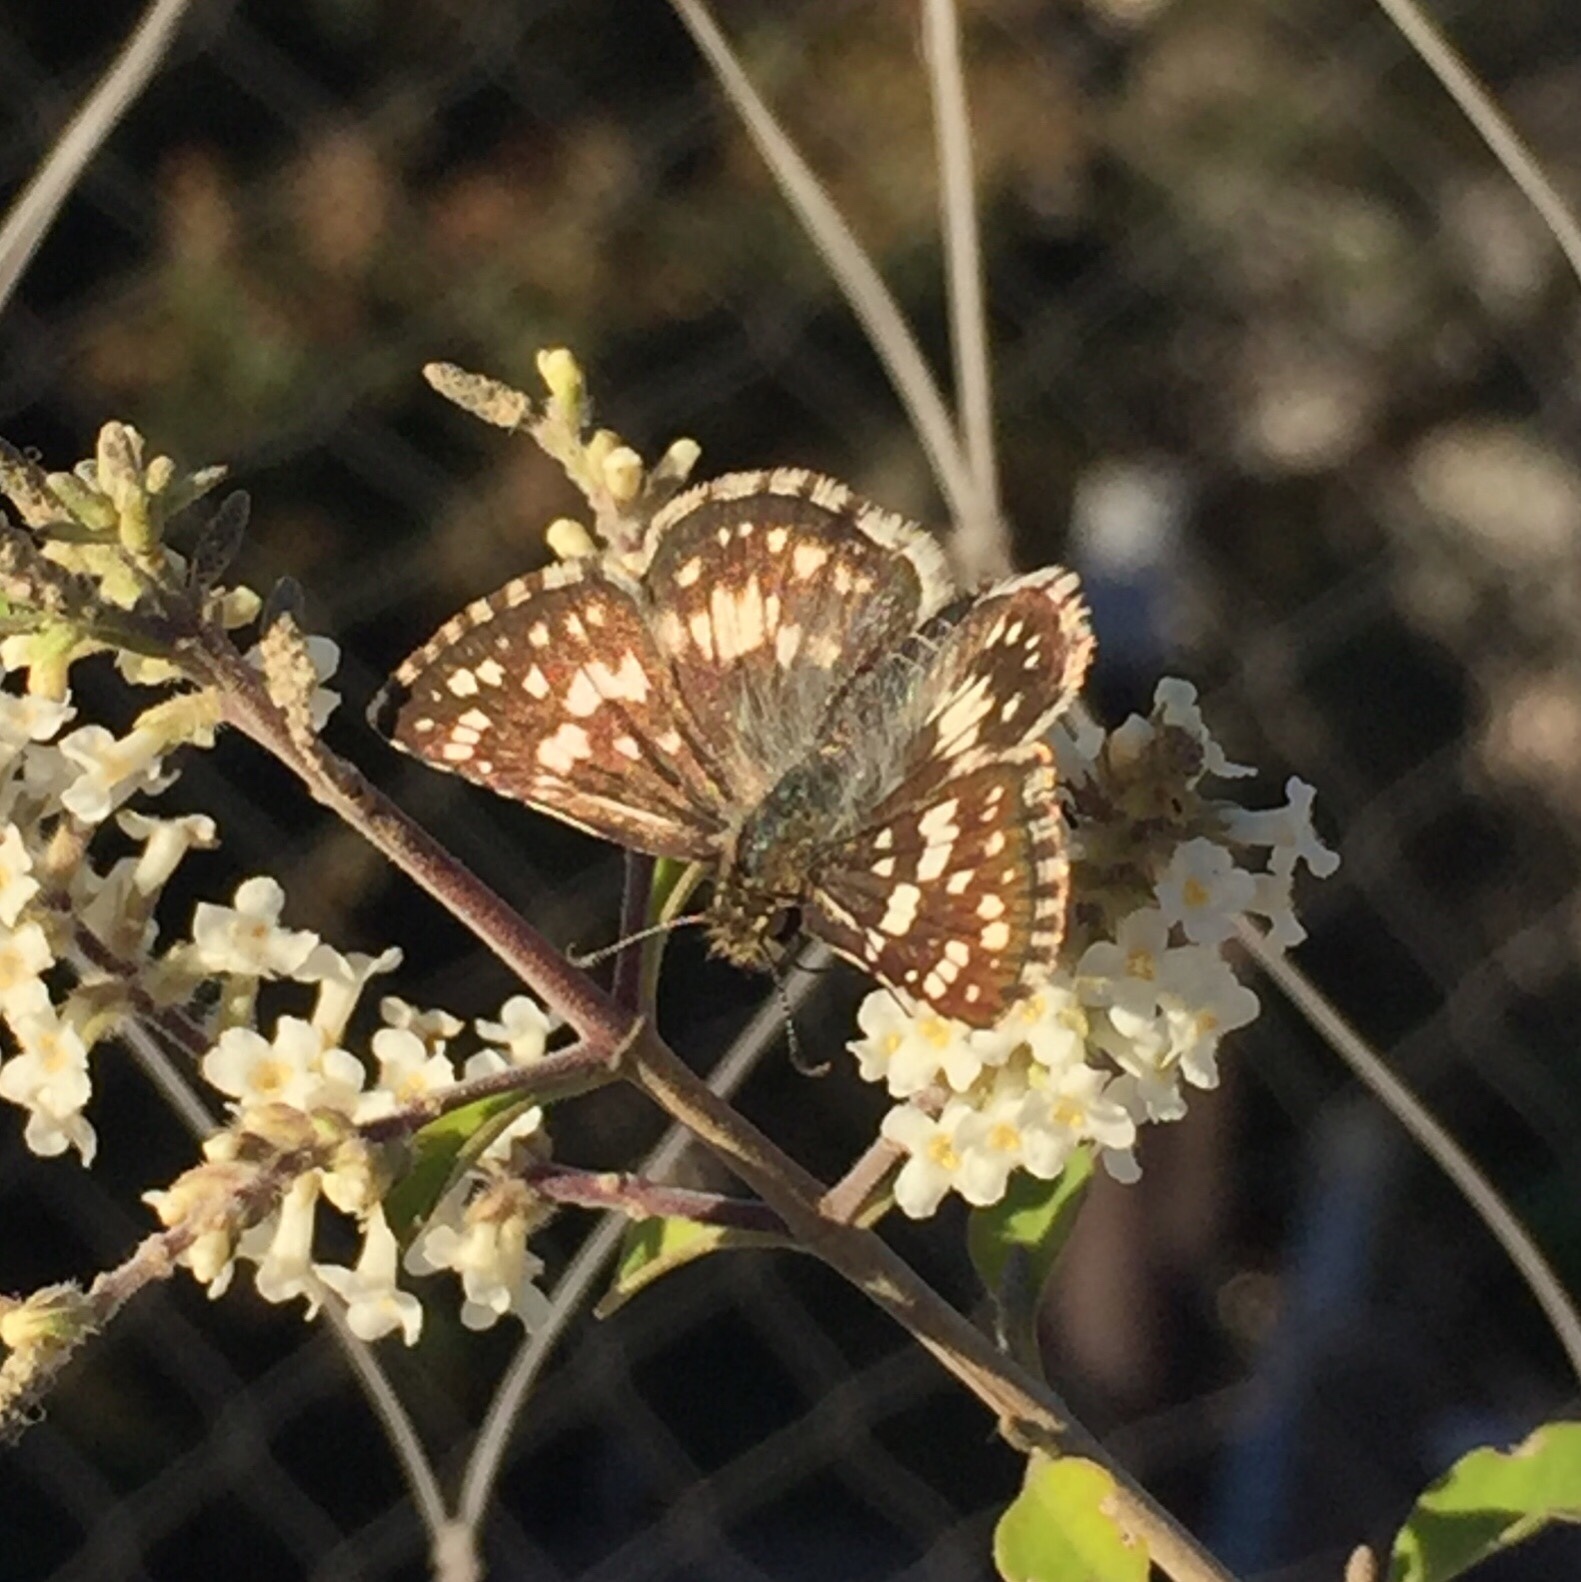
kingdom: Animalia
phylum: Arthropoda
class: Insecta
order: Lepidoptera
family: Hesperiidae
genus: Burnsius
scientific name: Burnsius orcynoides
